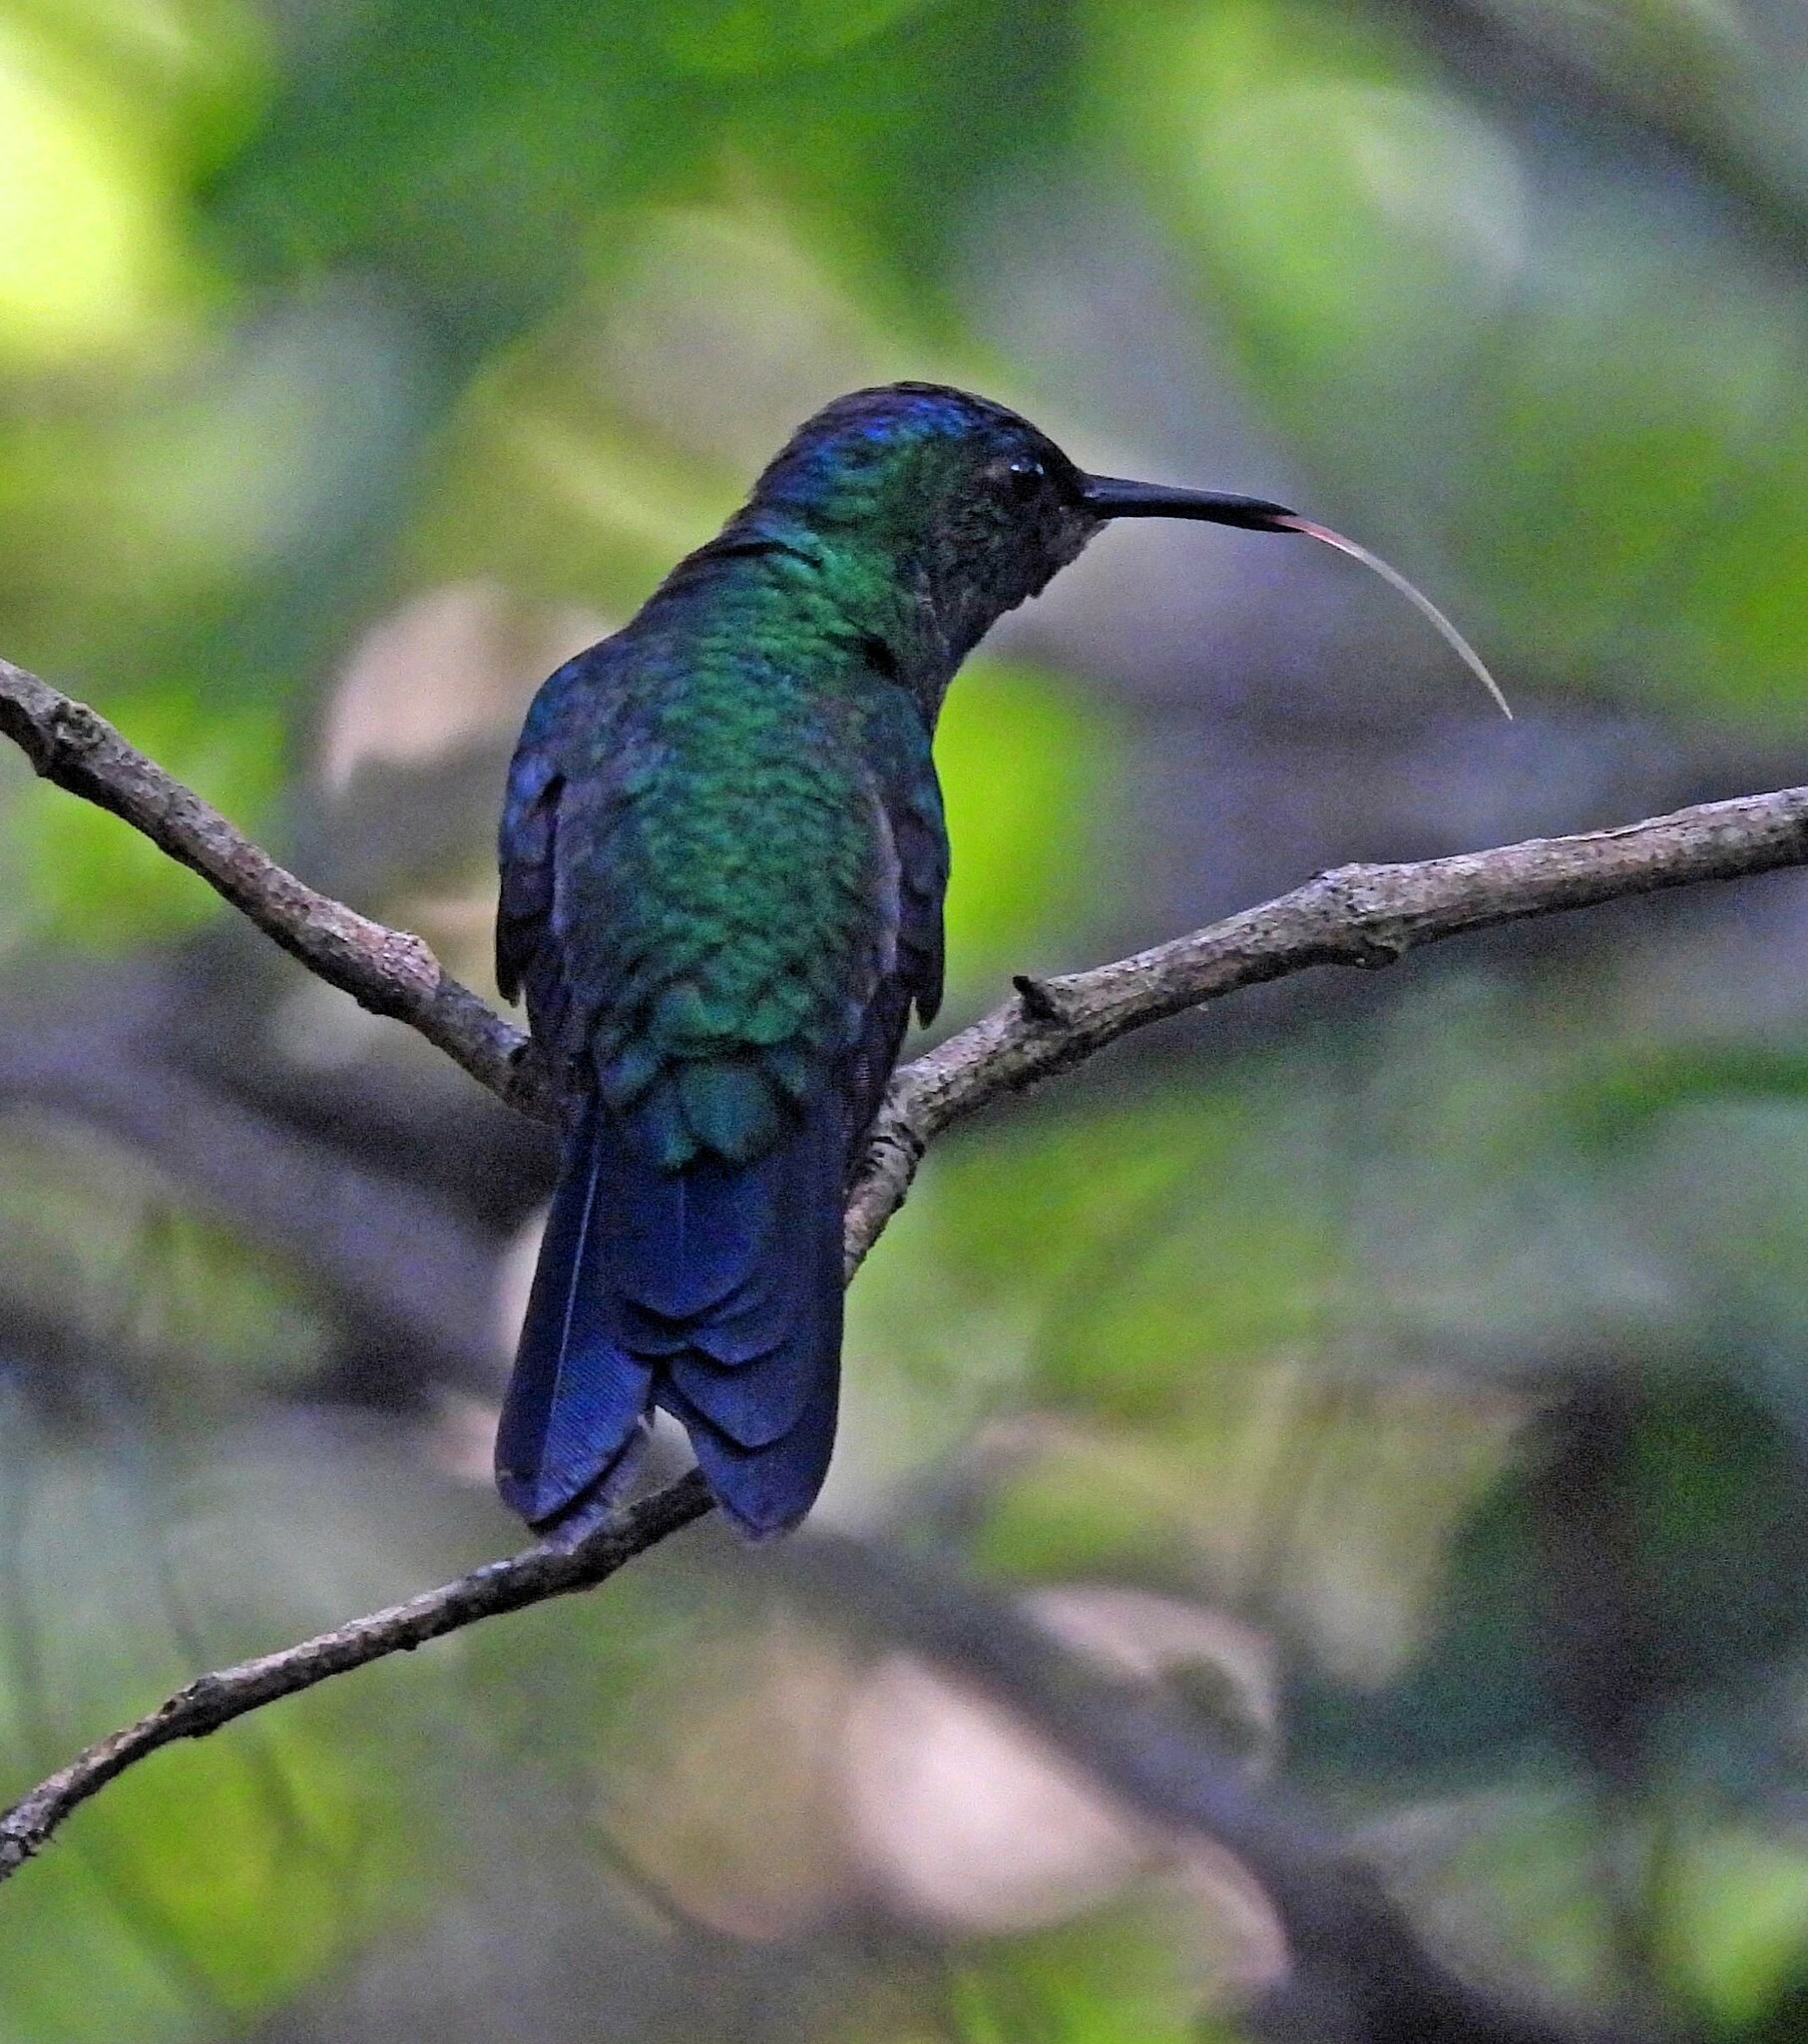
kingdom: Animalia
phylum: Chordata
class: Aves
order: Apodiformes
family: Trochilidae
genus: Thalurania
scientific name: Thalurania glaucopis
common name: Violet-capped woodnymph
